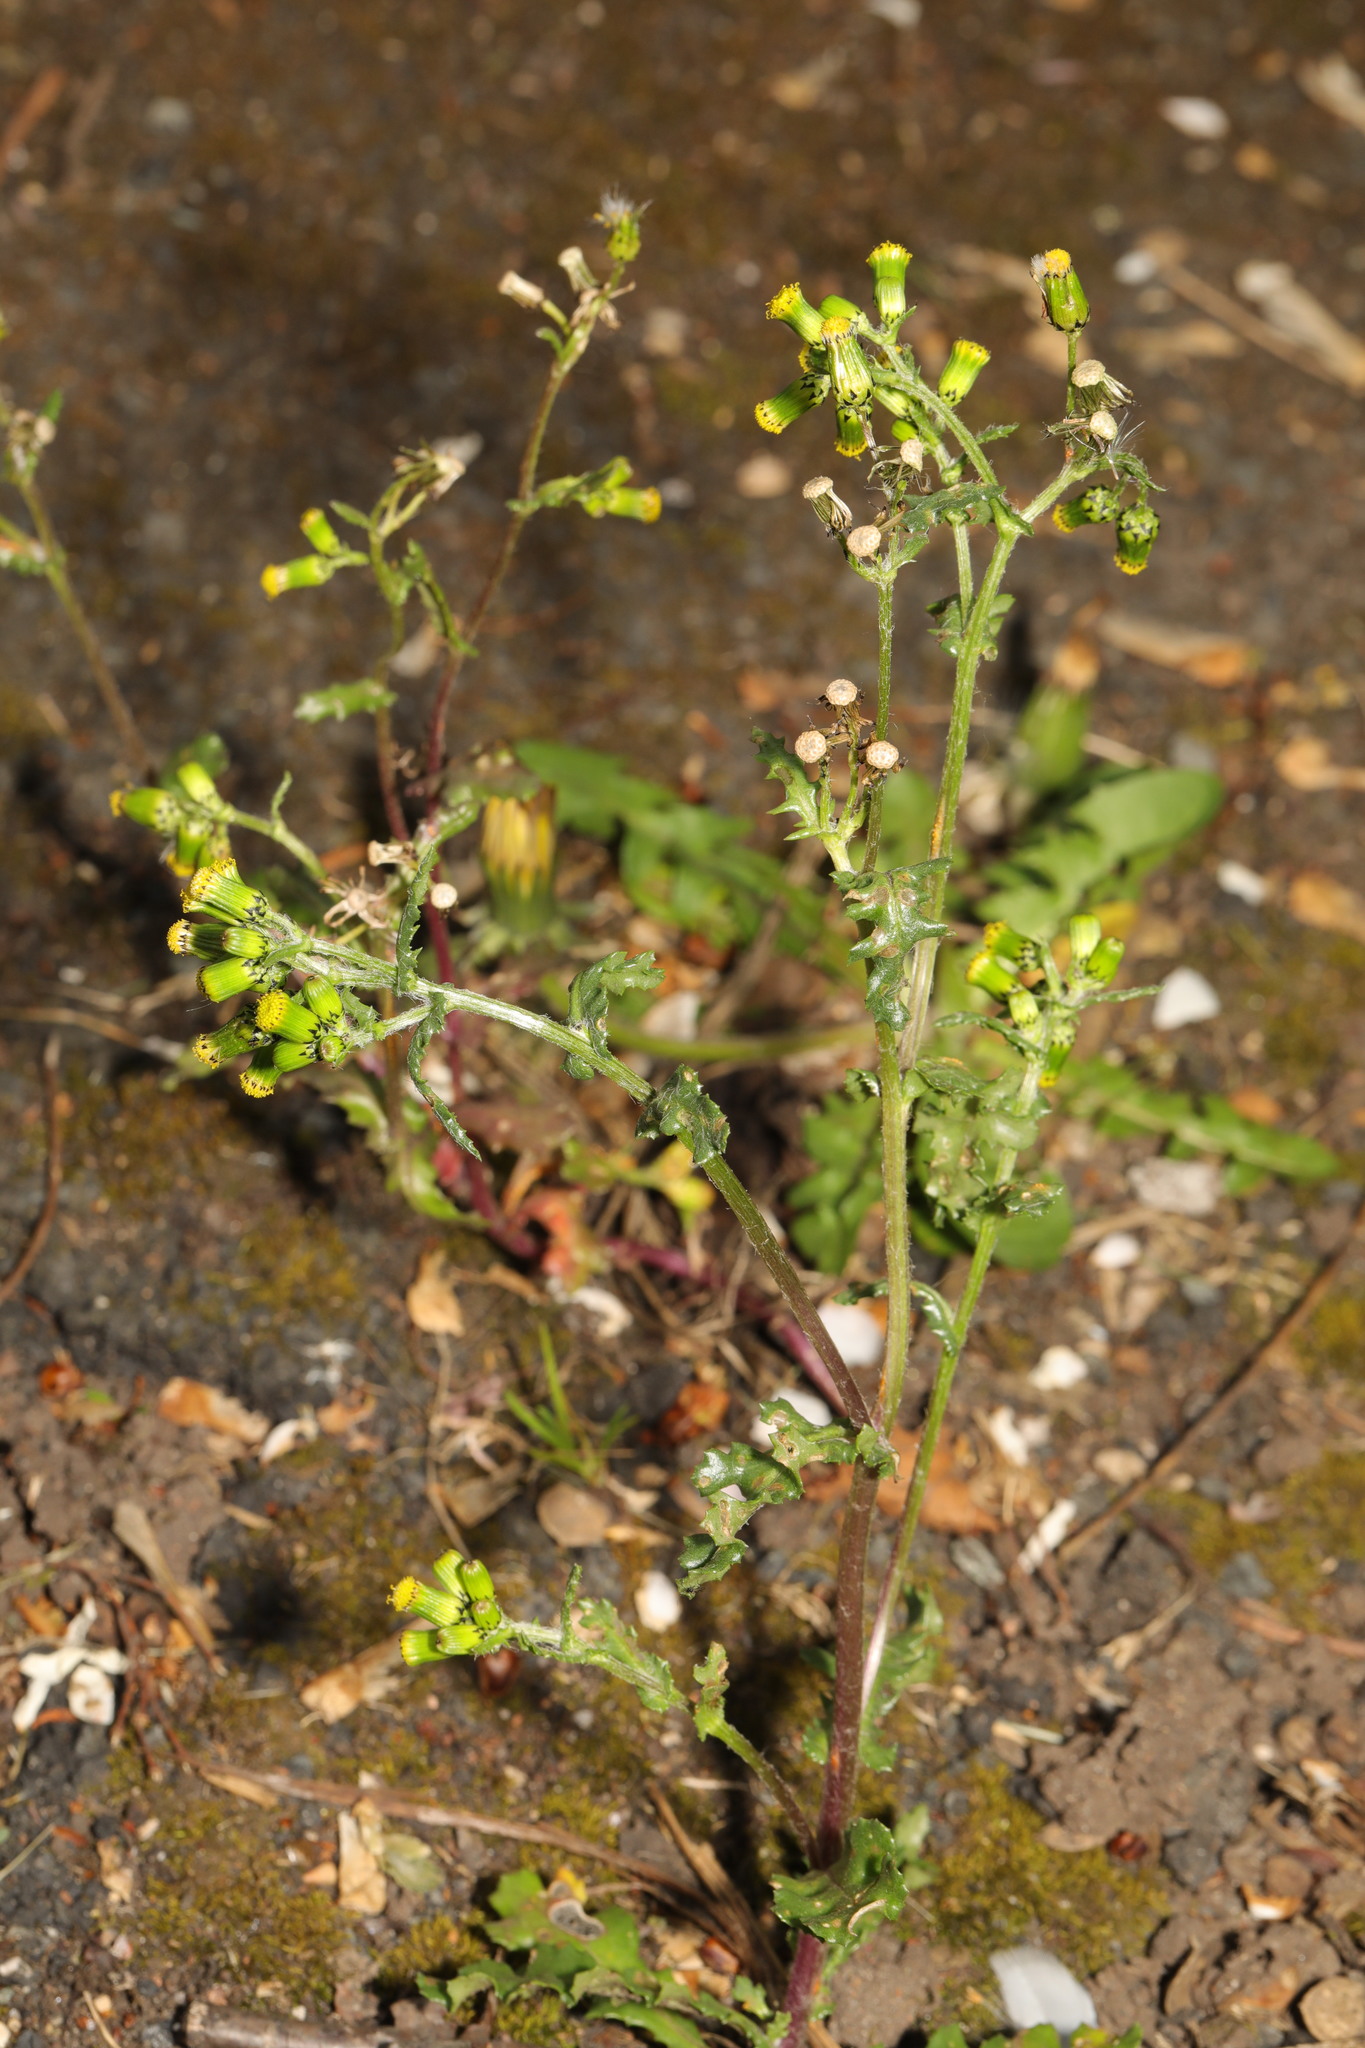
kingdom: Plantae
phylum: Tracheophyta
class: Magnoliopsida
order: Asterales
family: Asteraceae
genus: Senecio
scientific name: Senecio vulgaris
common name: Old-man-in-the-spring
